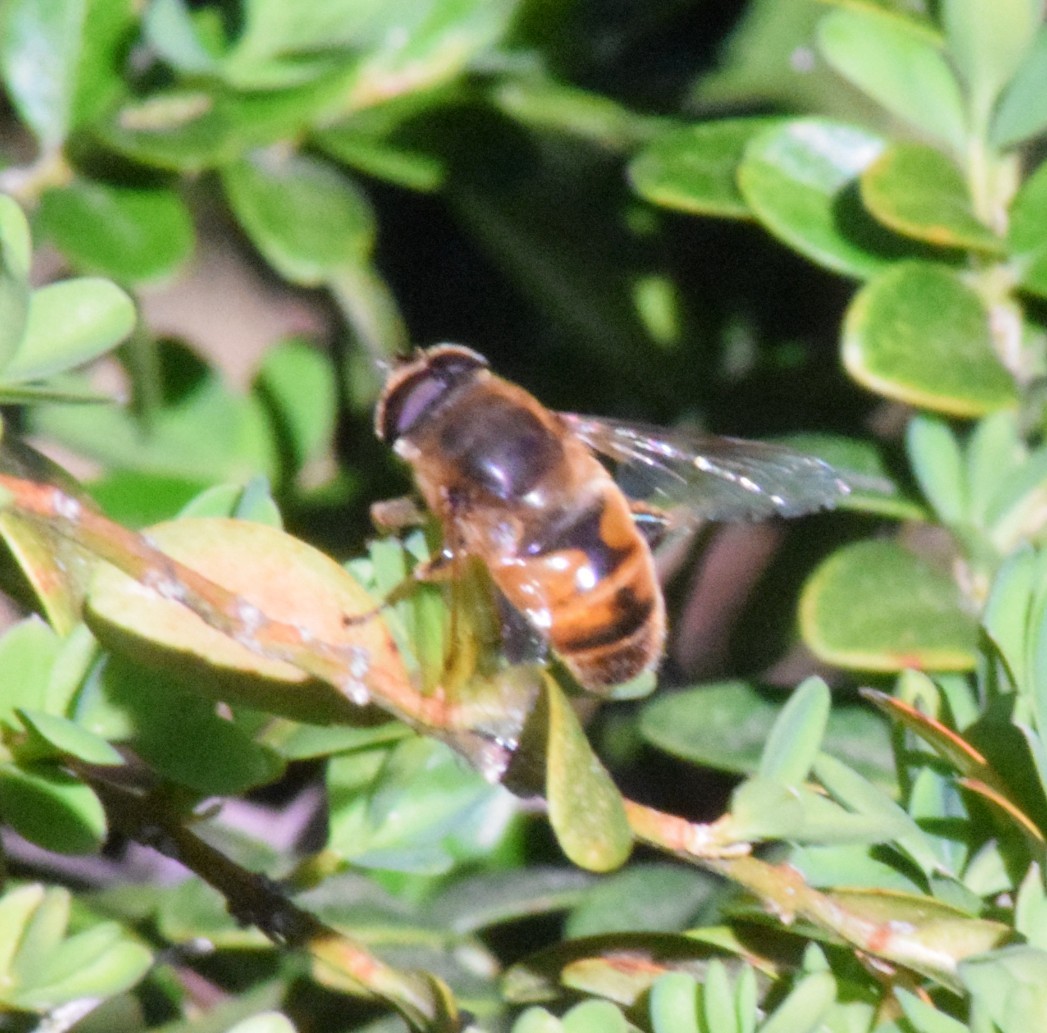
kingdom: Animalia
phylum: Arthropoda
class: Insecta
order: Diptera
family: Syrphidae
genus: Eristalis
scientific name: Eristalis tenax
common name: Drone fly
